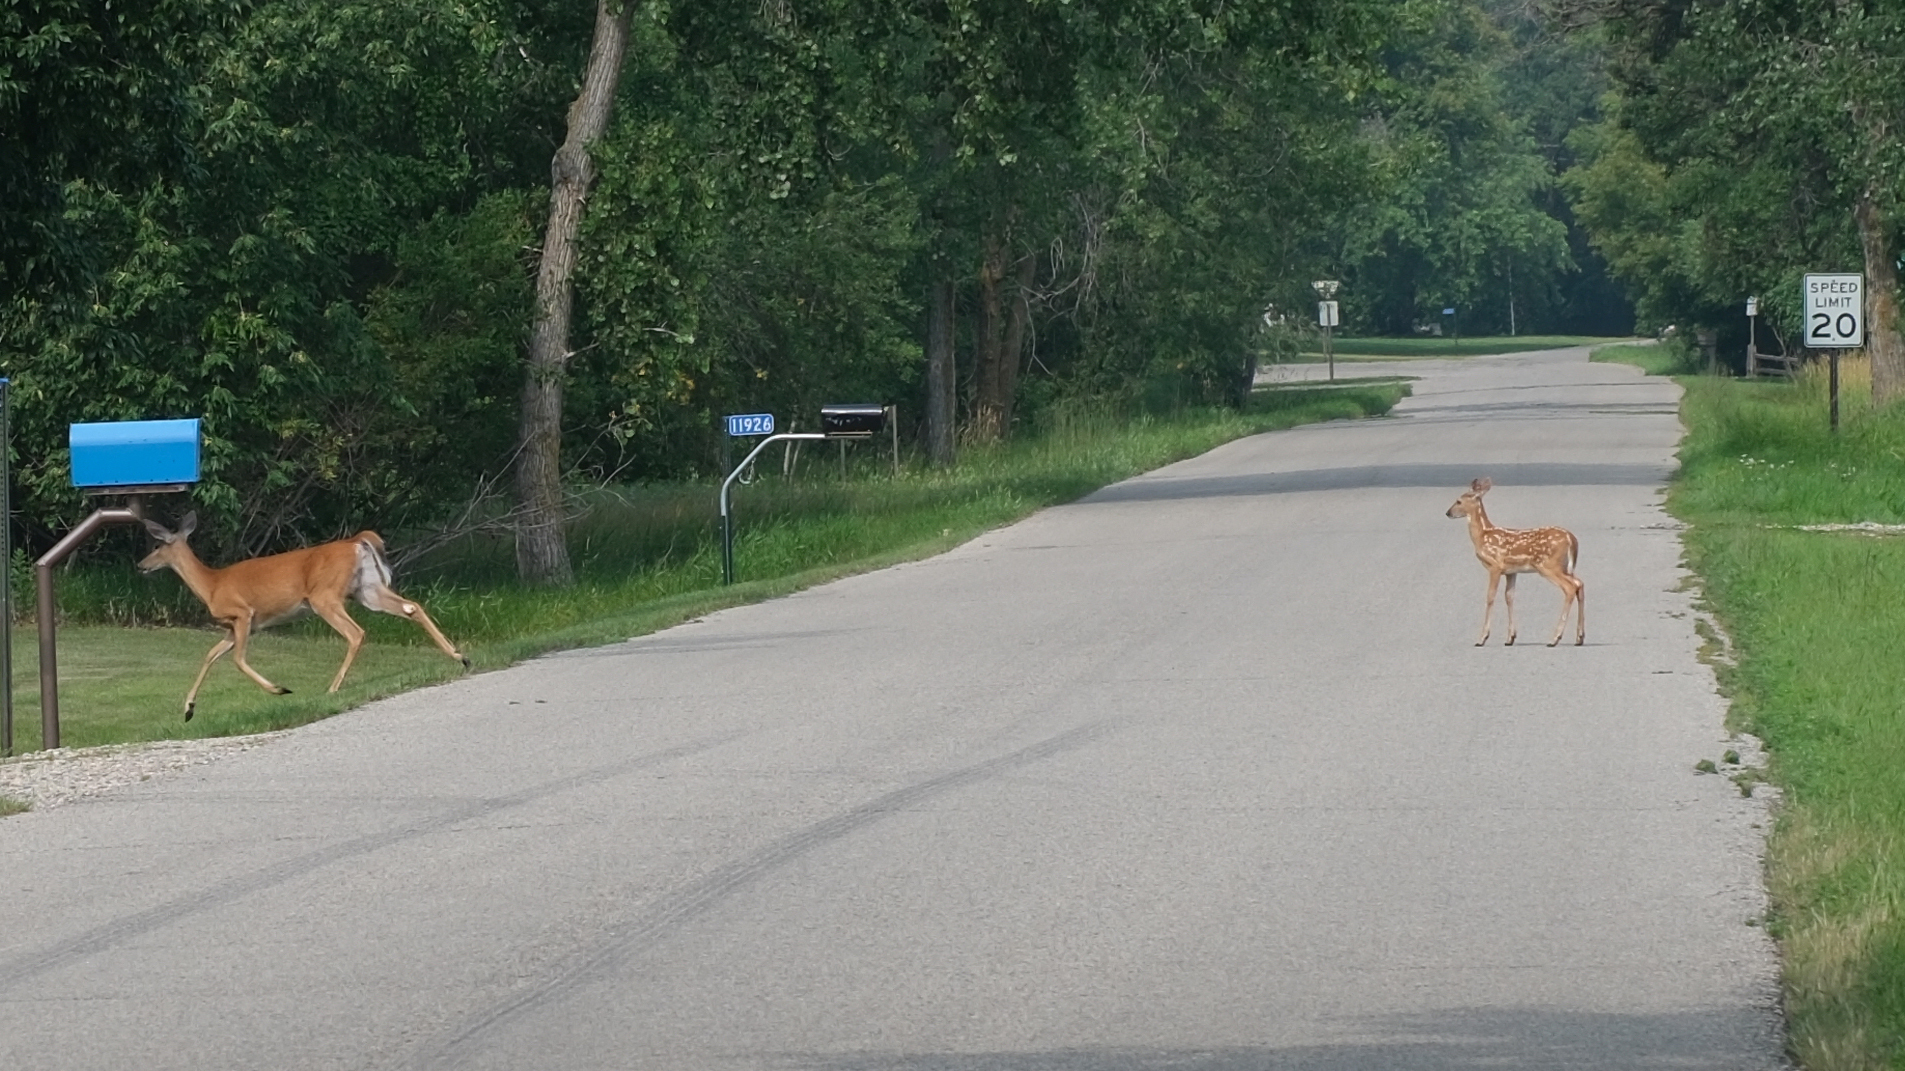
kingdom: Animalia
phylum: Chordata
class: Mammalia
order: Artiodactyla
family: Cervidae
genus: Odocoileus
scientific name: Odocoileus virginianus
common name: White-tailed deer
